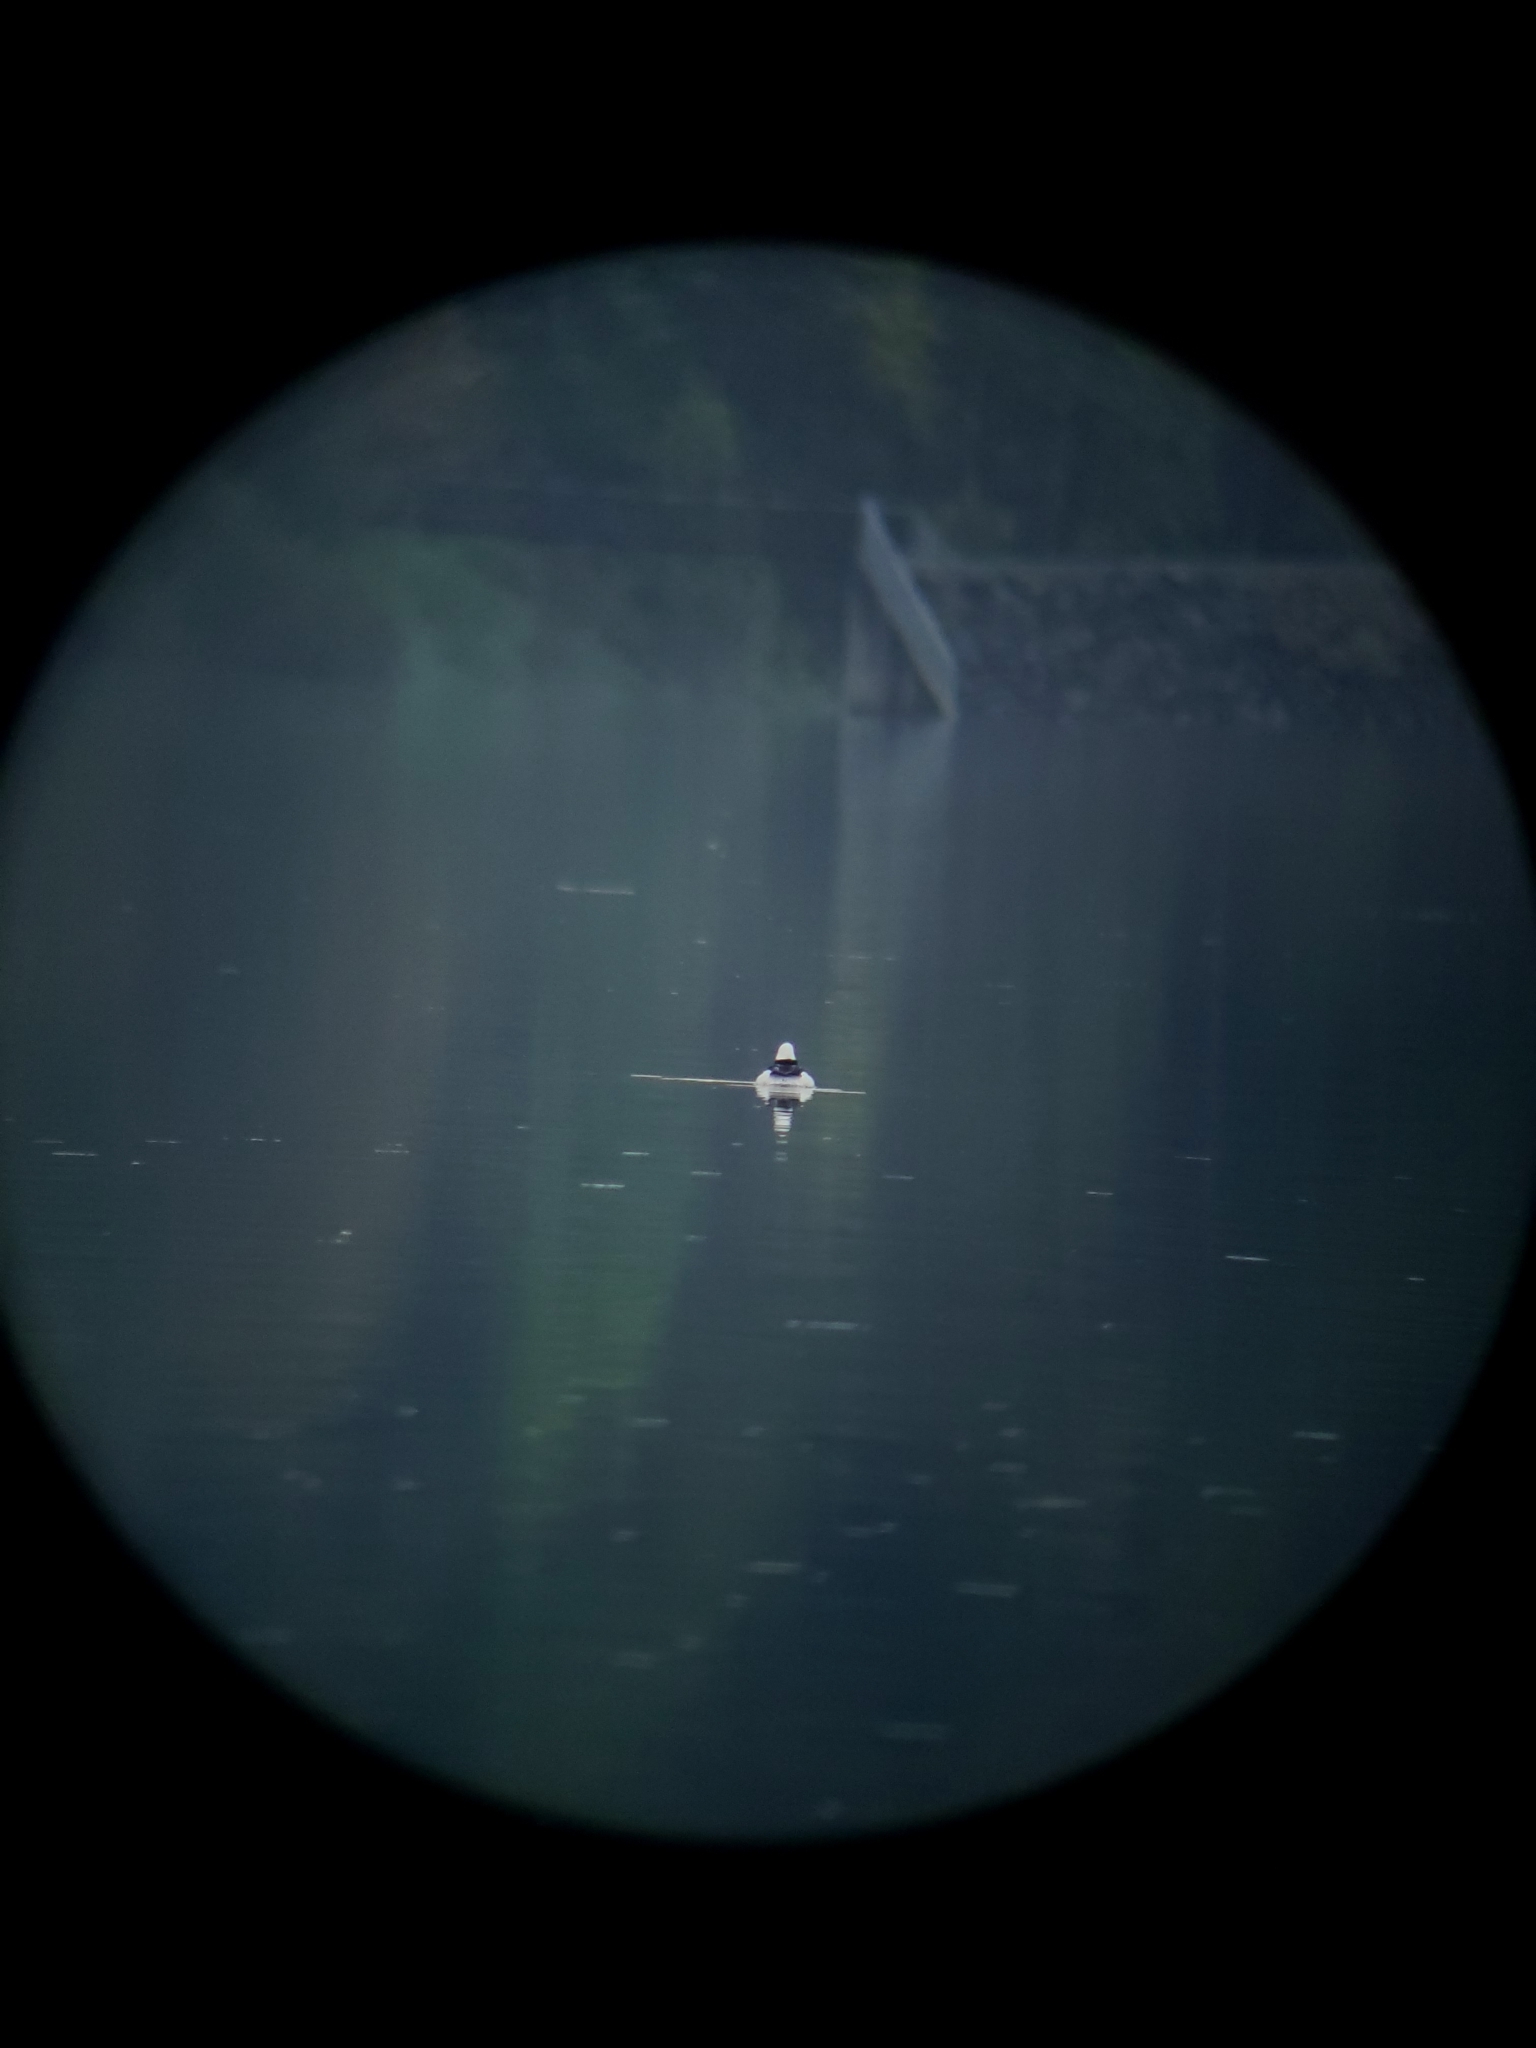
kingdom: Animalia
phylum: Chordata
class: Aves
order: Anseriformes
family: Anatidae
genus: Bucephala
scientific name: Bucephala albeola
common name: Bufflehead
